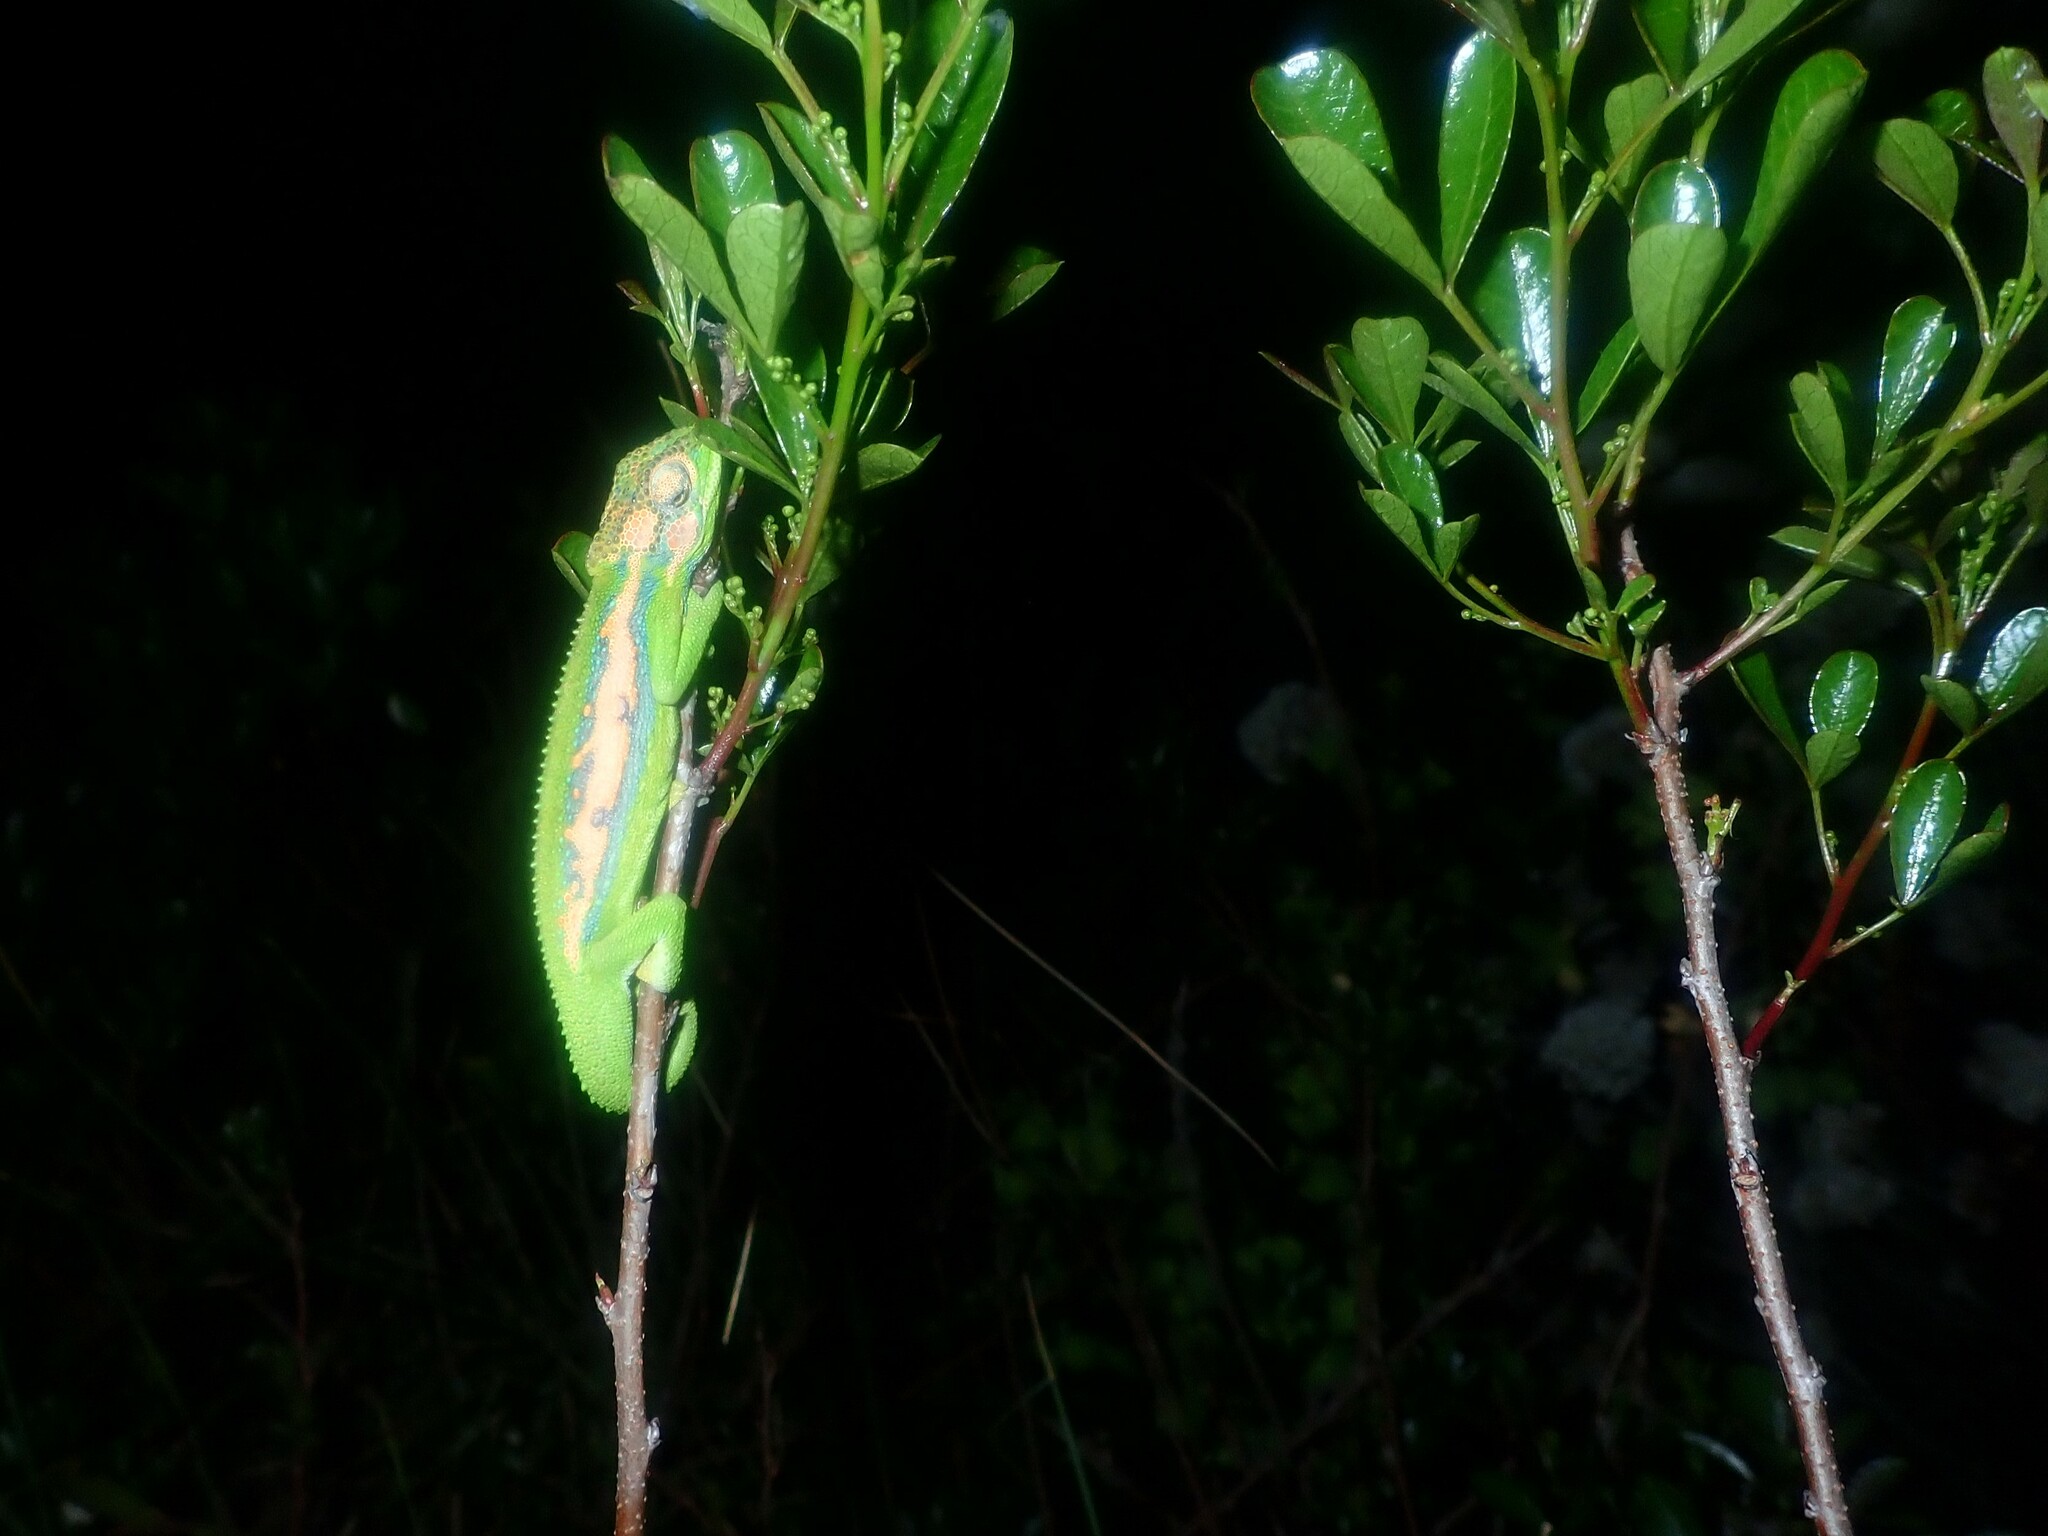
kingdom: Animalia
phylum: Chordata
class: Squamata
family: Chamaeleonidae
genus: Bradypodion
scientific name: Bradypodion pumilum
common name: Cape dwarf chameleon
